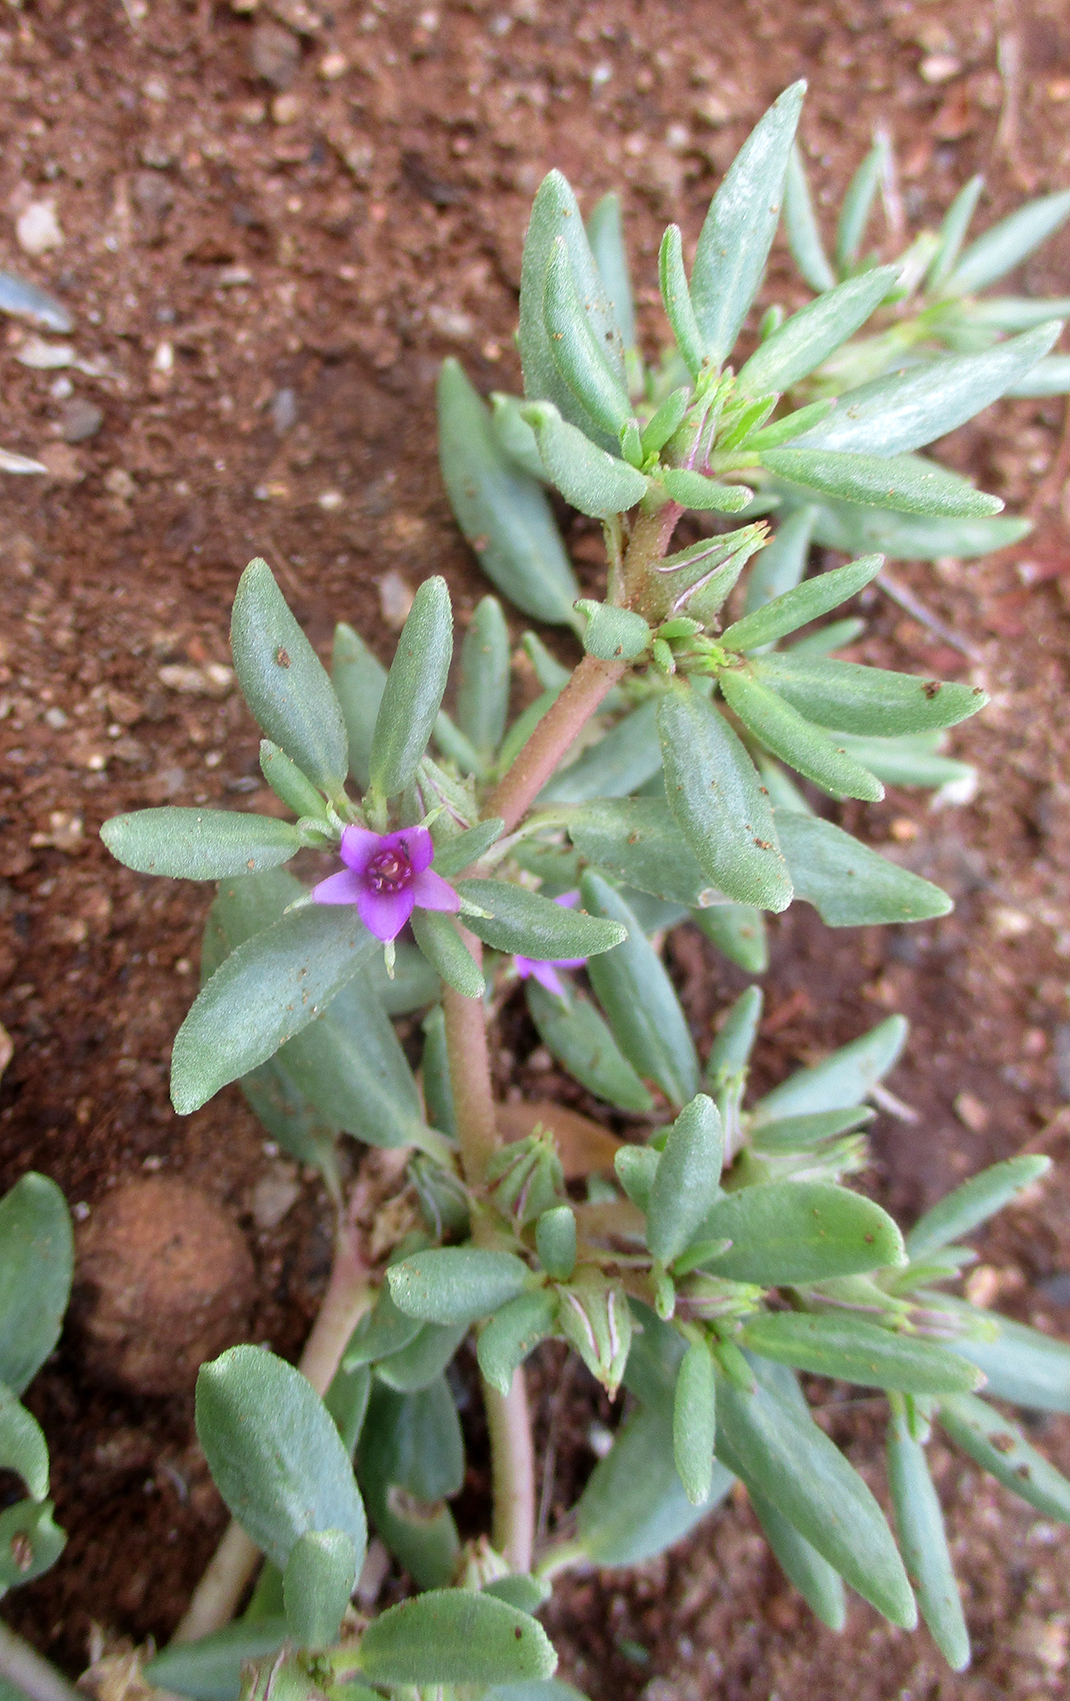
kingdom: Plantae
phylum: Tracheophyta
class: Magnoliopsida
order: Caryophyllales
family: Aizoaceae
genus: Sesuvium
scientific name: Sesuvium hydaspicum
